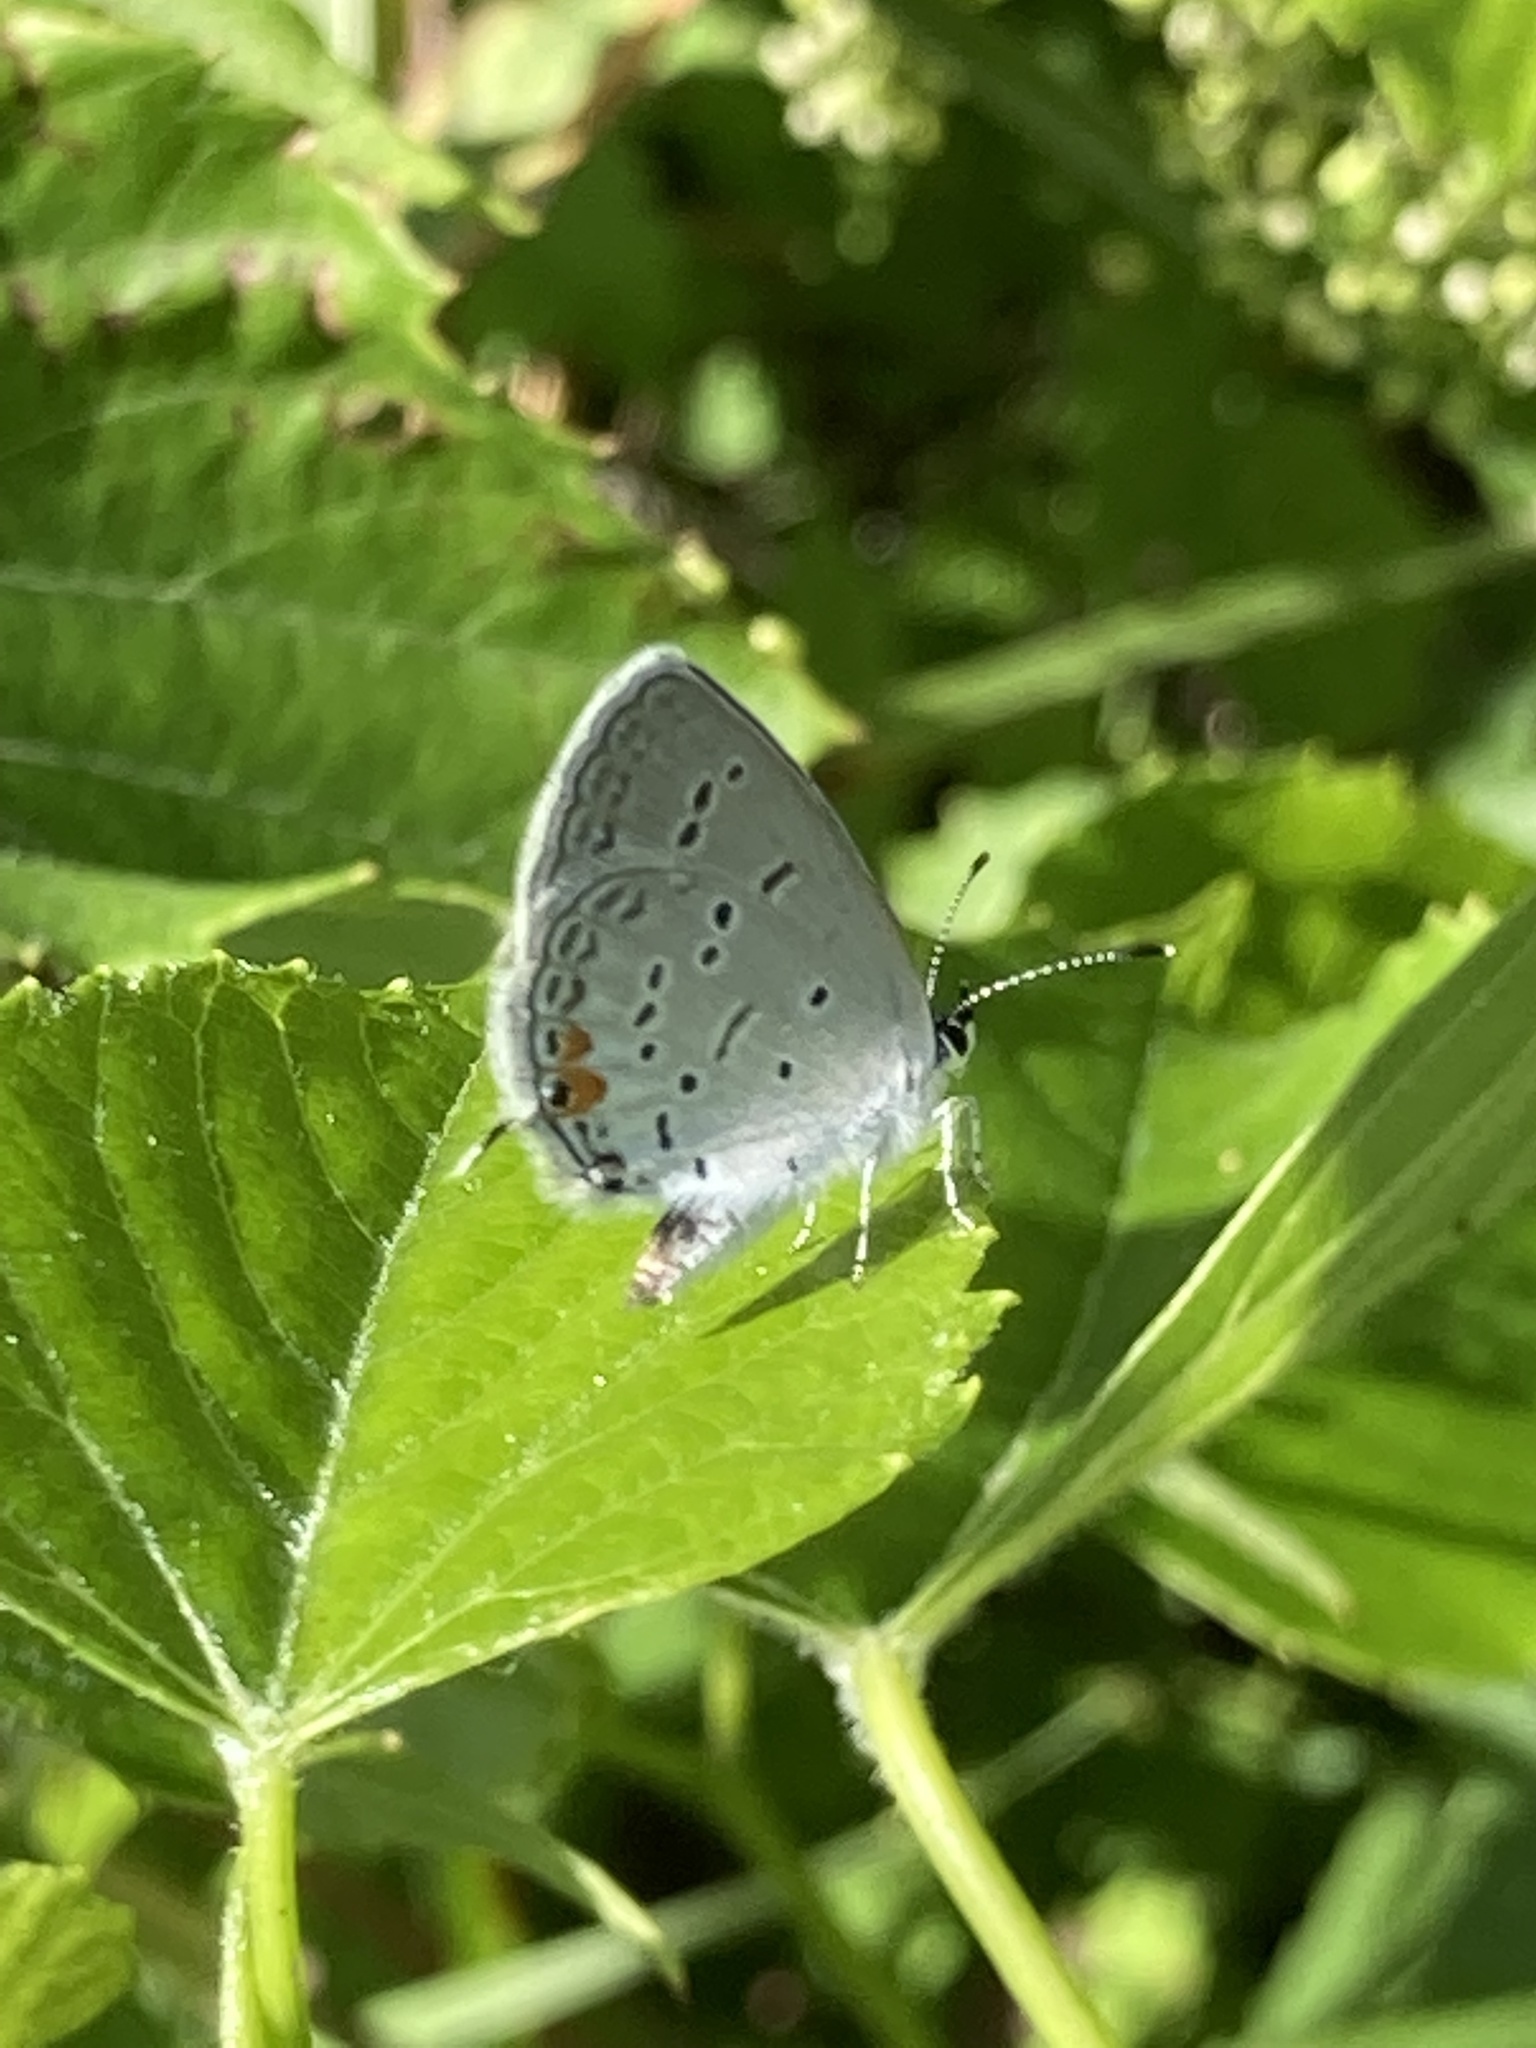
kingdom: Animalia
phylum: Arthropoda
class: Insecta
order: Lepidoptera
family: Lycaenidae
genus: Elkalyce
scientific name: Elkalyce comyntas
